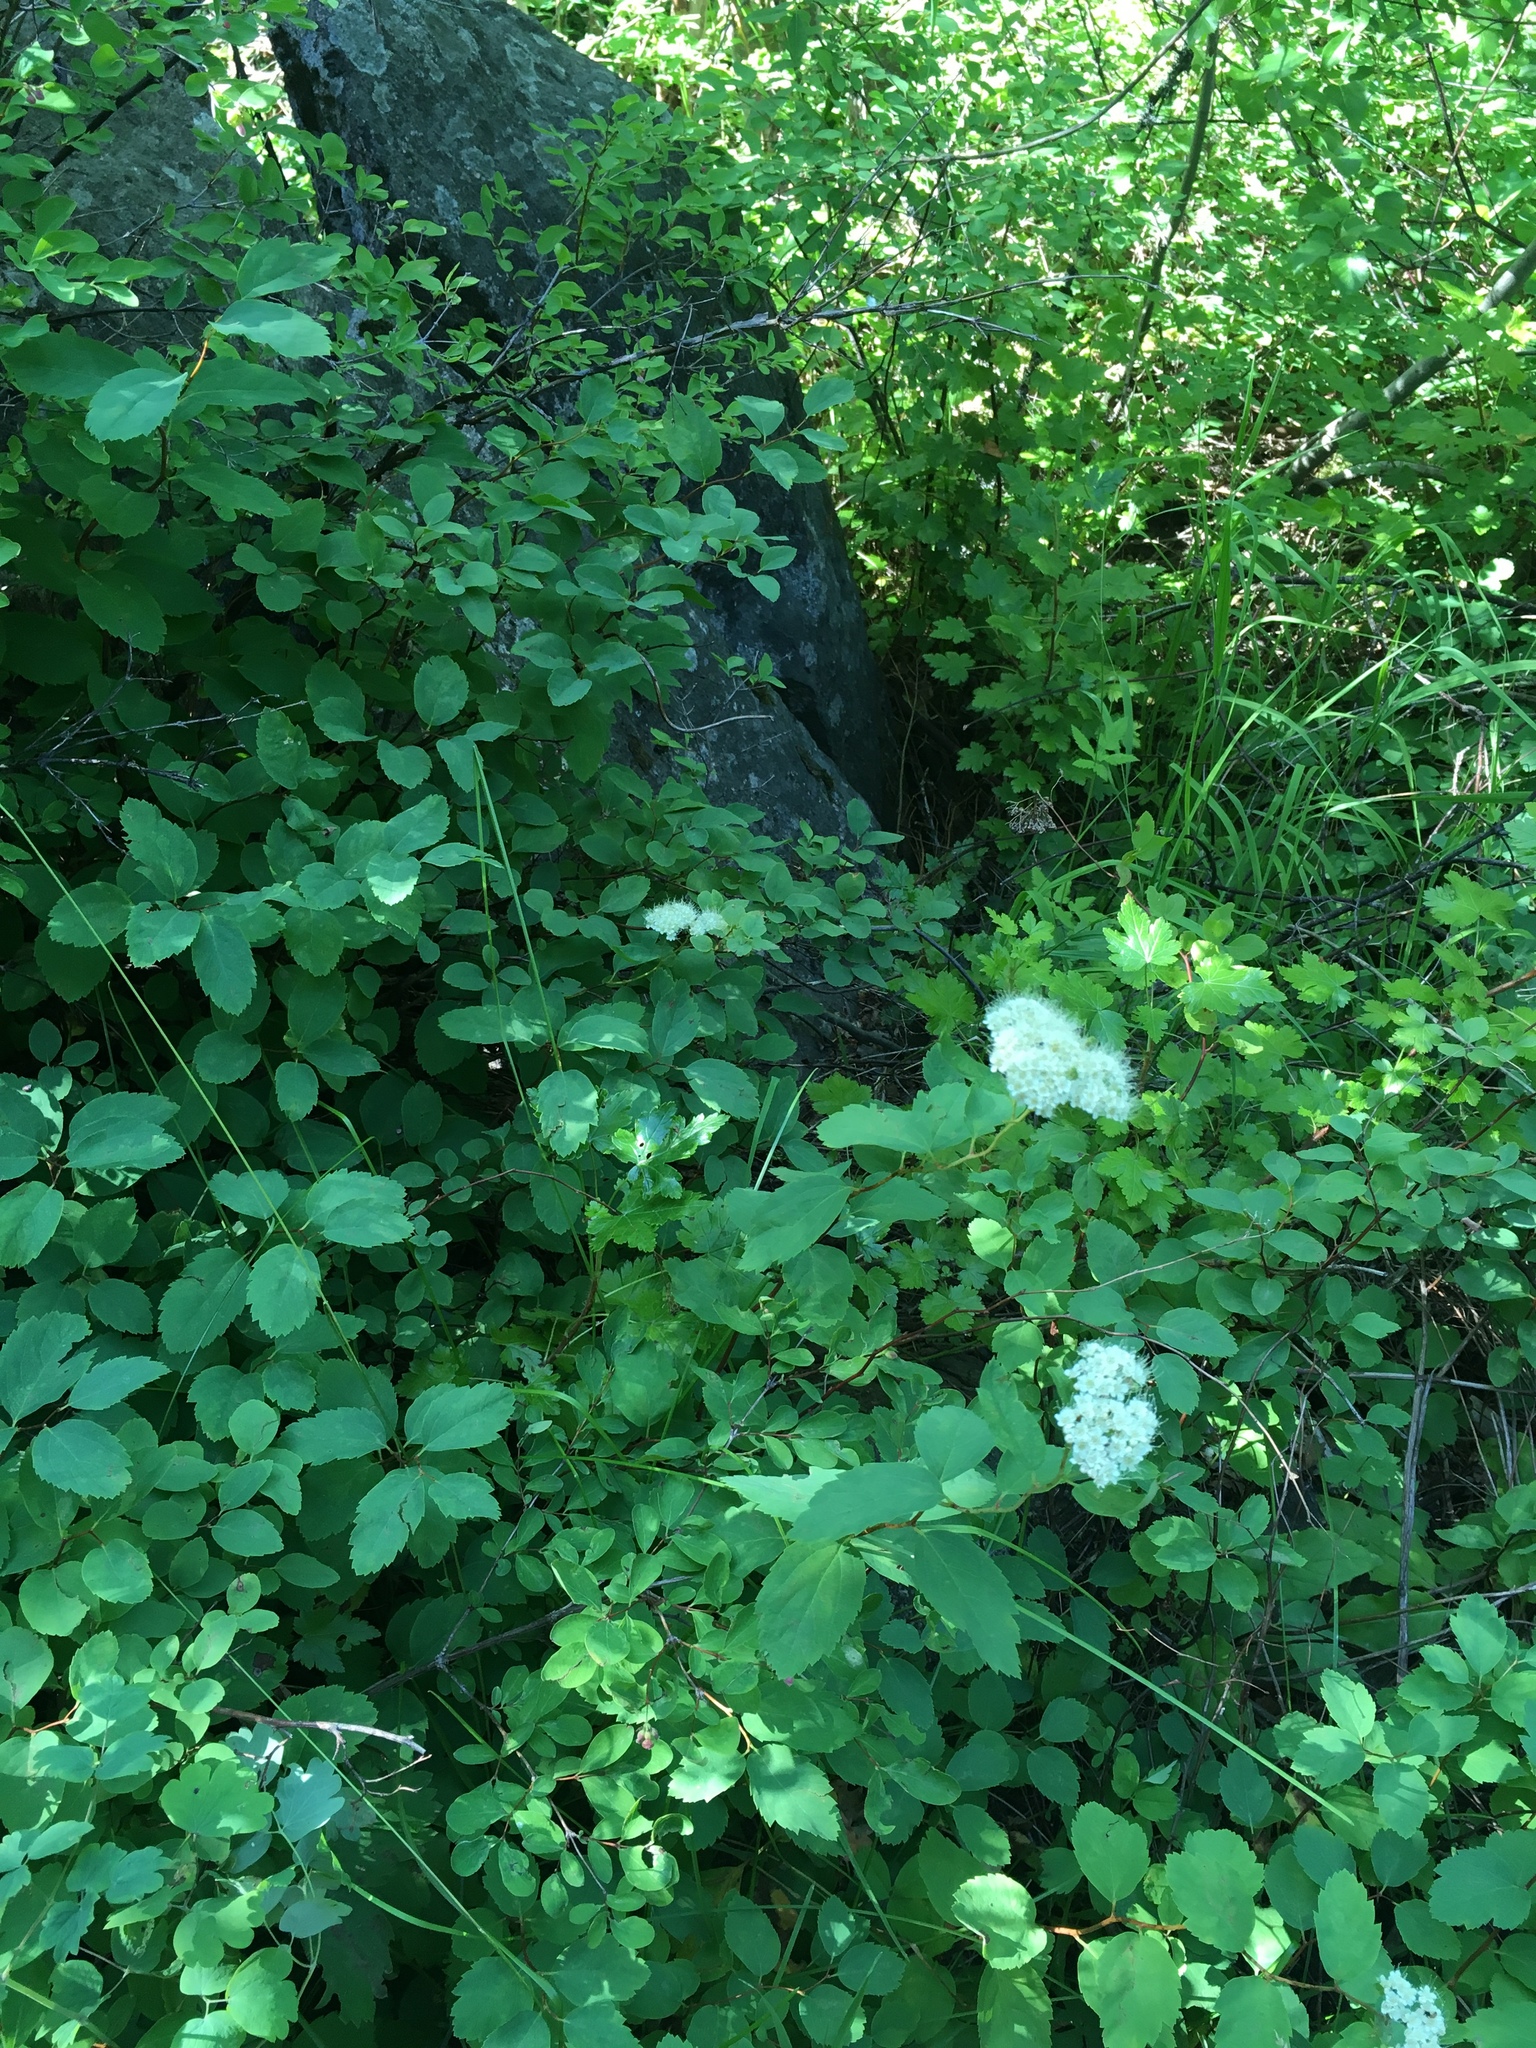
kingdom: Plantae
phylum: Tracheophyta
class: Magnoliopsida
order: Rosales
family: Rosaceae
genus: Spiraea
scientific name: Spiraea lucida
